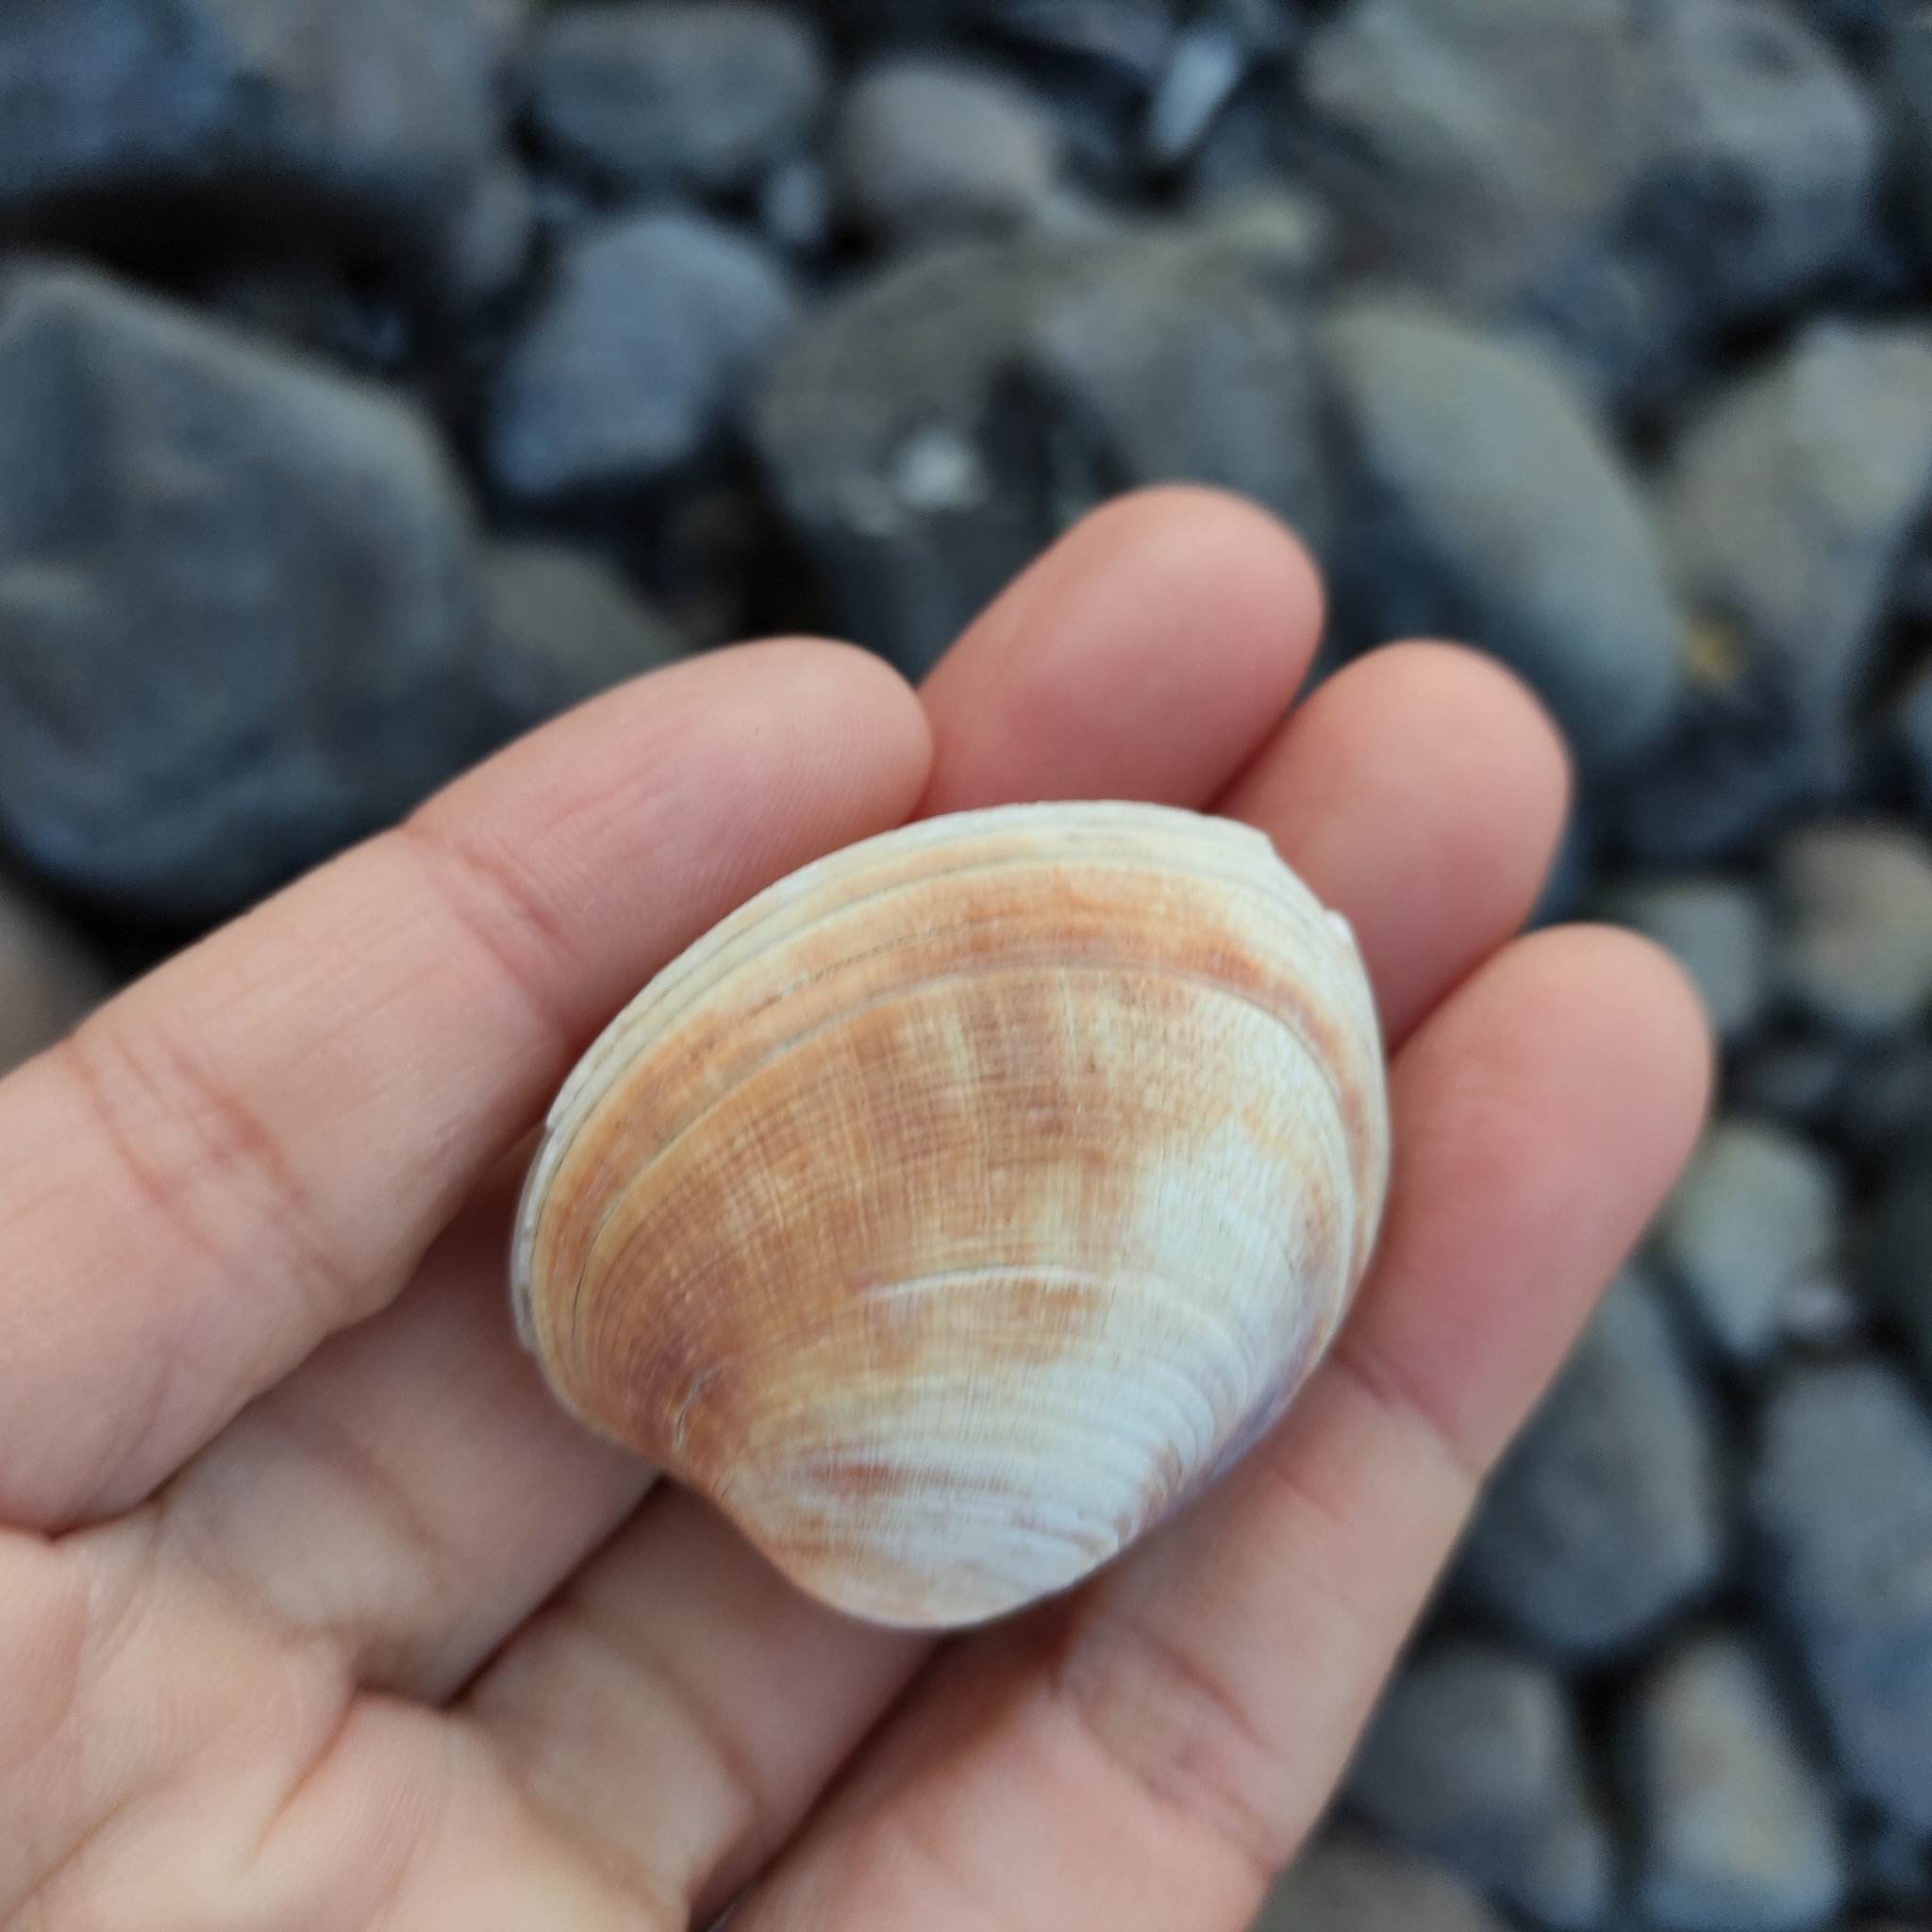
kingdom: Animalia
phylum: Mollusca
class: Bivalvia
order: Venerida
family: Veneridae
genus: Venerupis
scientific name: Venerupis largillierti
